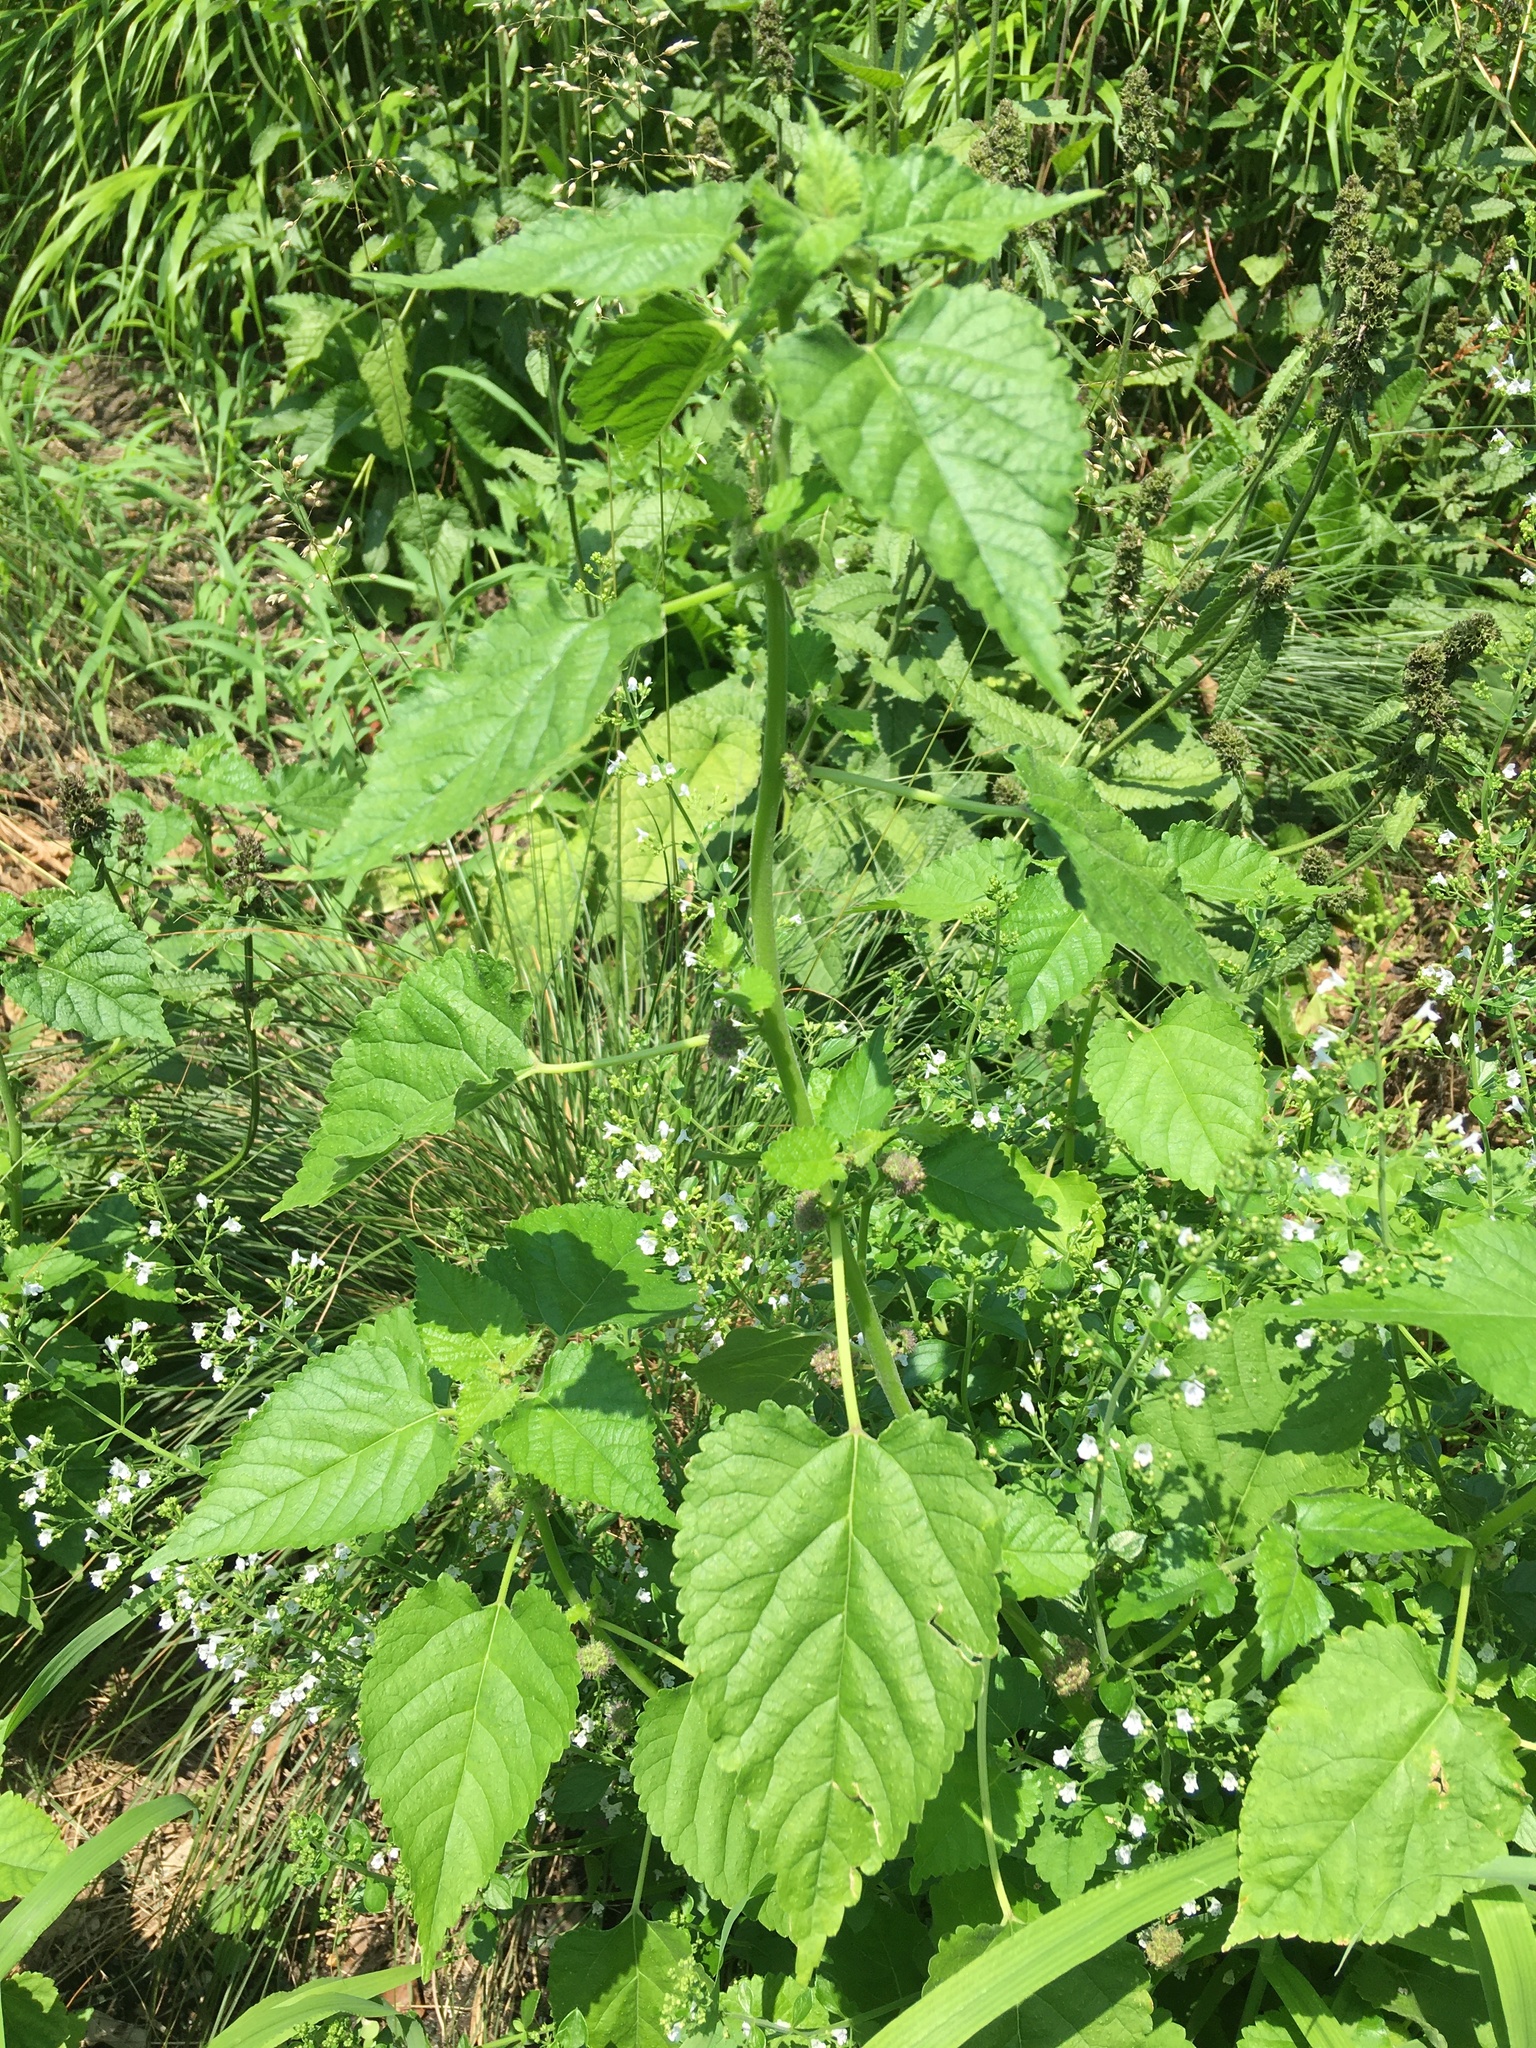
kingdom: Plantae
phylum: Tracheophyta
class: Magnoliopsida
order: Rosales
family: Moraceae
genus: Fatoua
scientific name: Fatoua villosa
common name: Hairy crabweed
